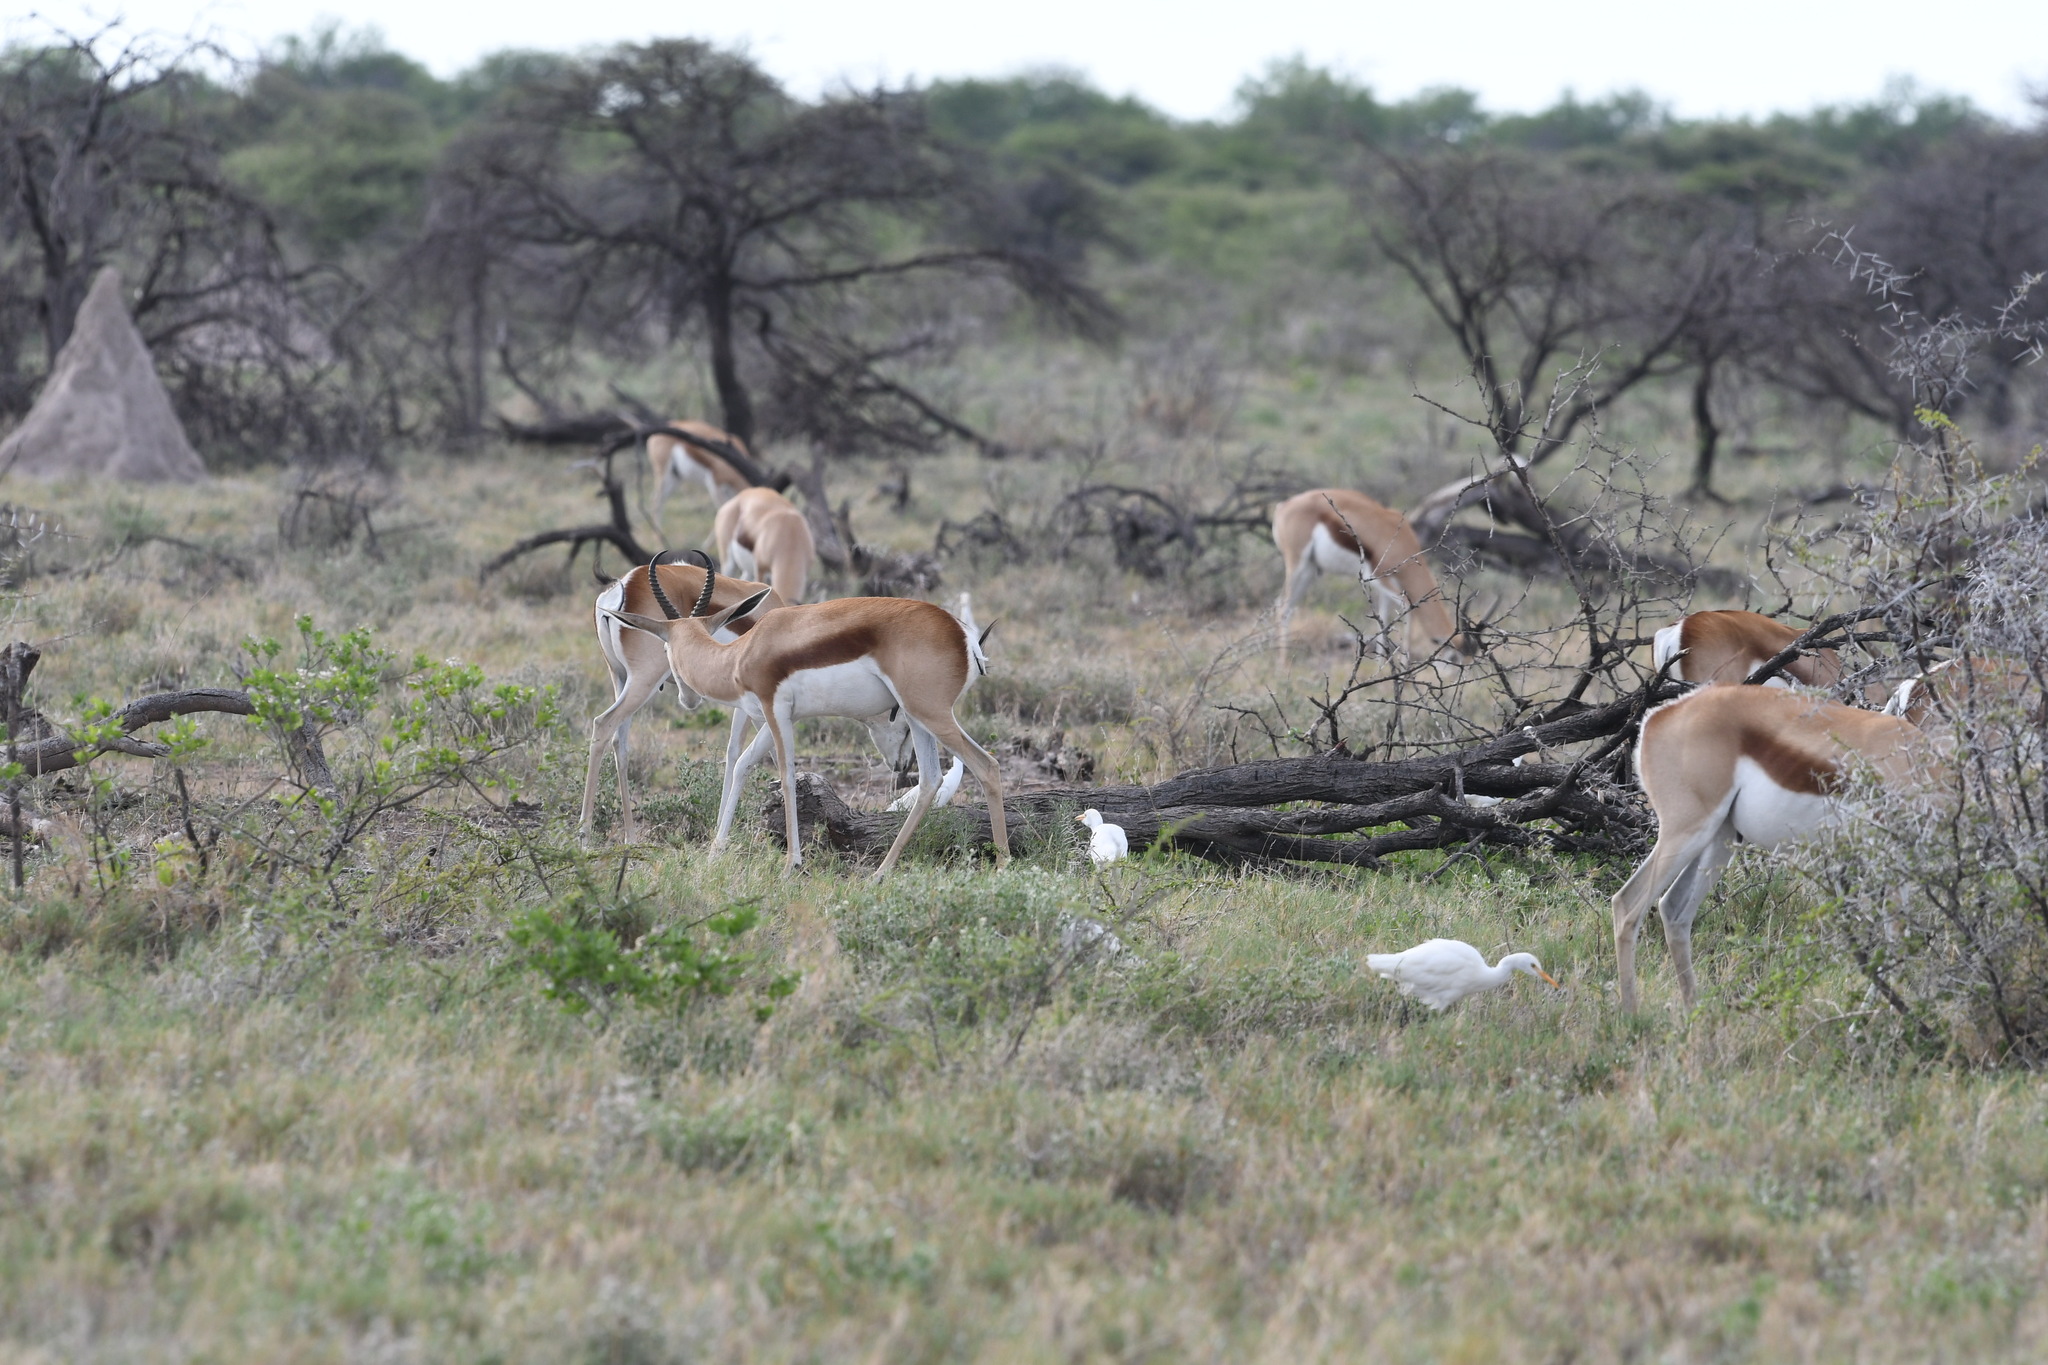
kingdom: Animalia
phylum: Chordata
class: Mammalia
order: Artiodactyla
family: Bovidae
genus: Antidorcas
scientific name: Antidorcas marsupialis
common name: Springbok
